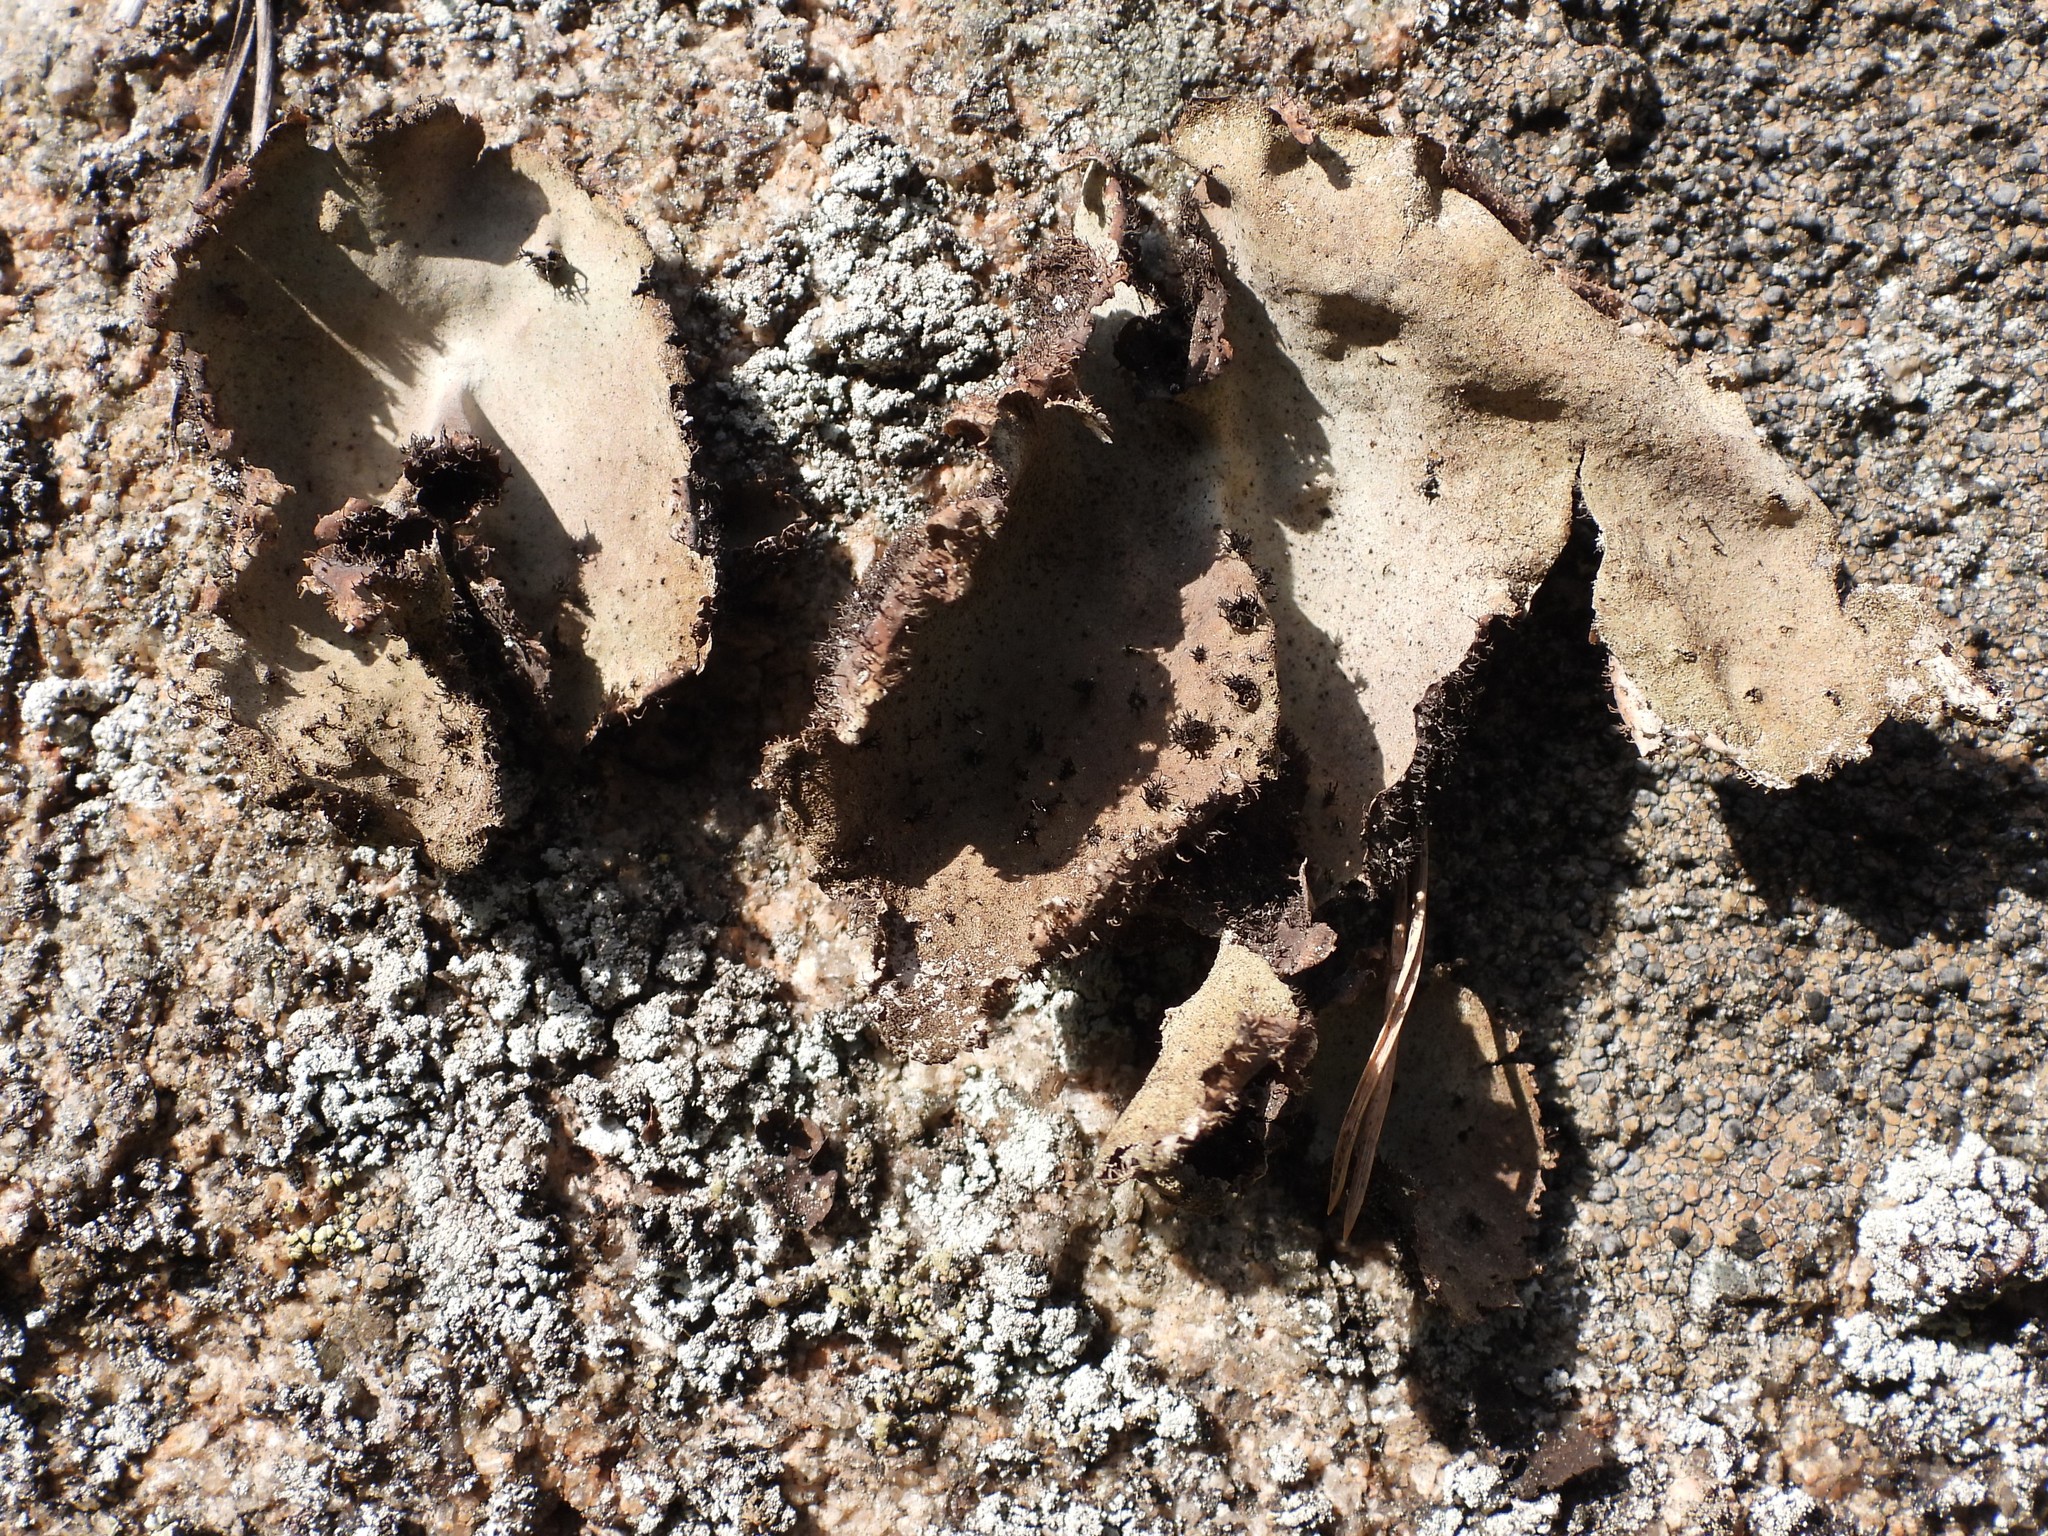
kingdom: Fungi
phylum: Ascomycota
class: Lecanoromycetes
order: Umbilicariales
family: Umbilicariaceae
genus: Umbilicaria
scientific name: Umbilicaria vellea
